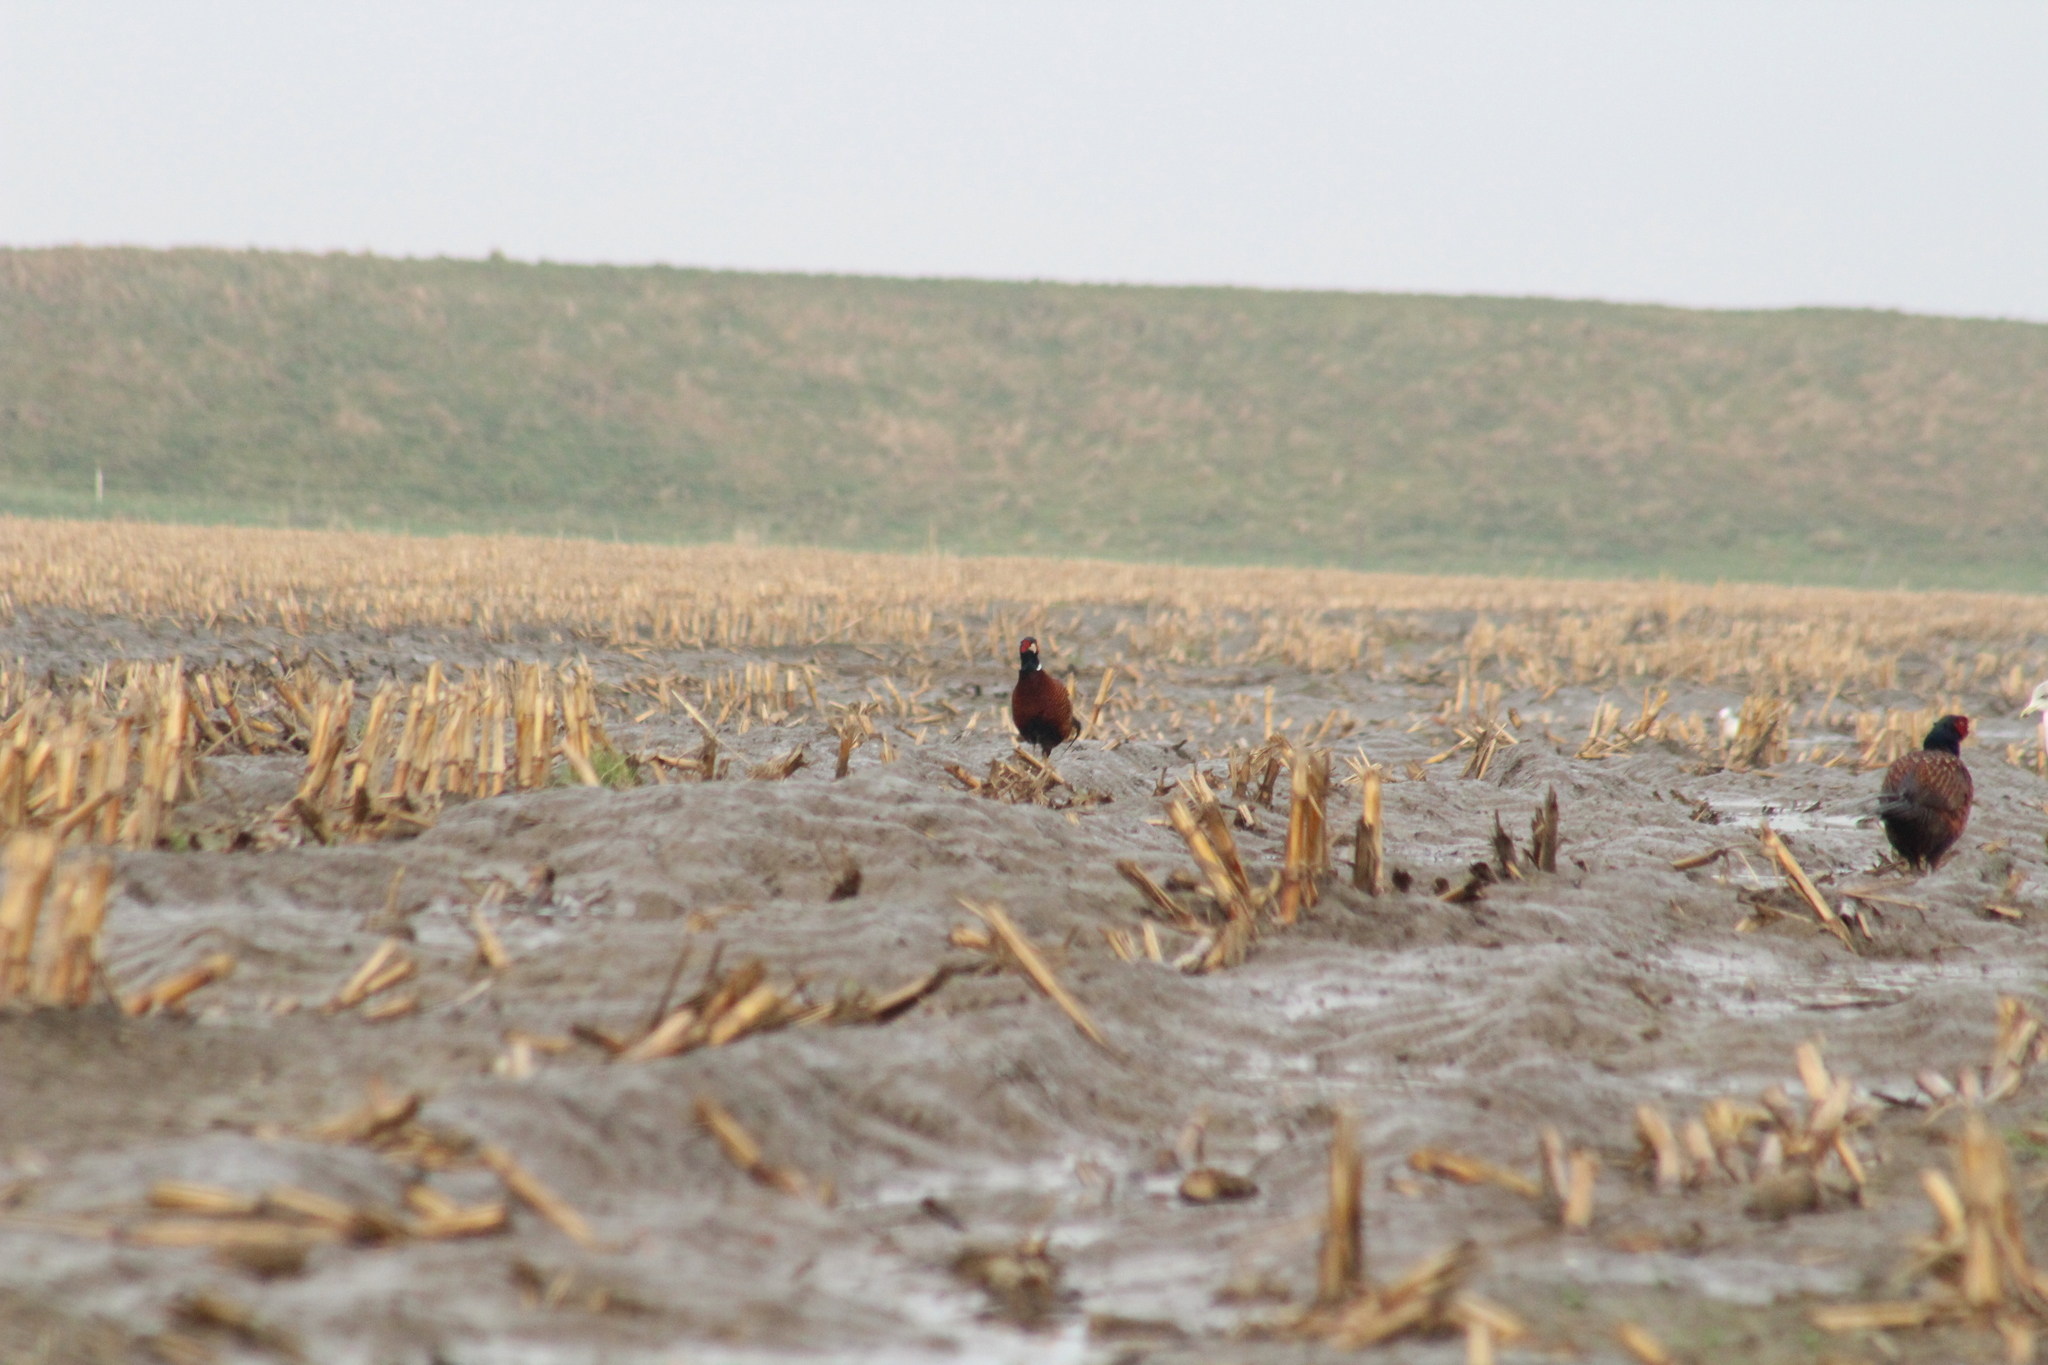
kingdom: Animalia
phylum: Chordata
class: Aves
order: Galliformes
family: Phasianidae
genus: Phasianus
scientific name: Phasianus colchicus
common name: Common pheasant
